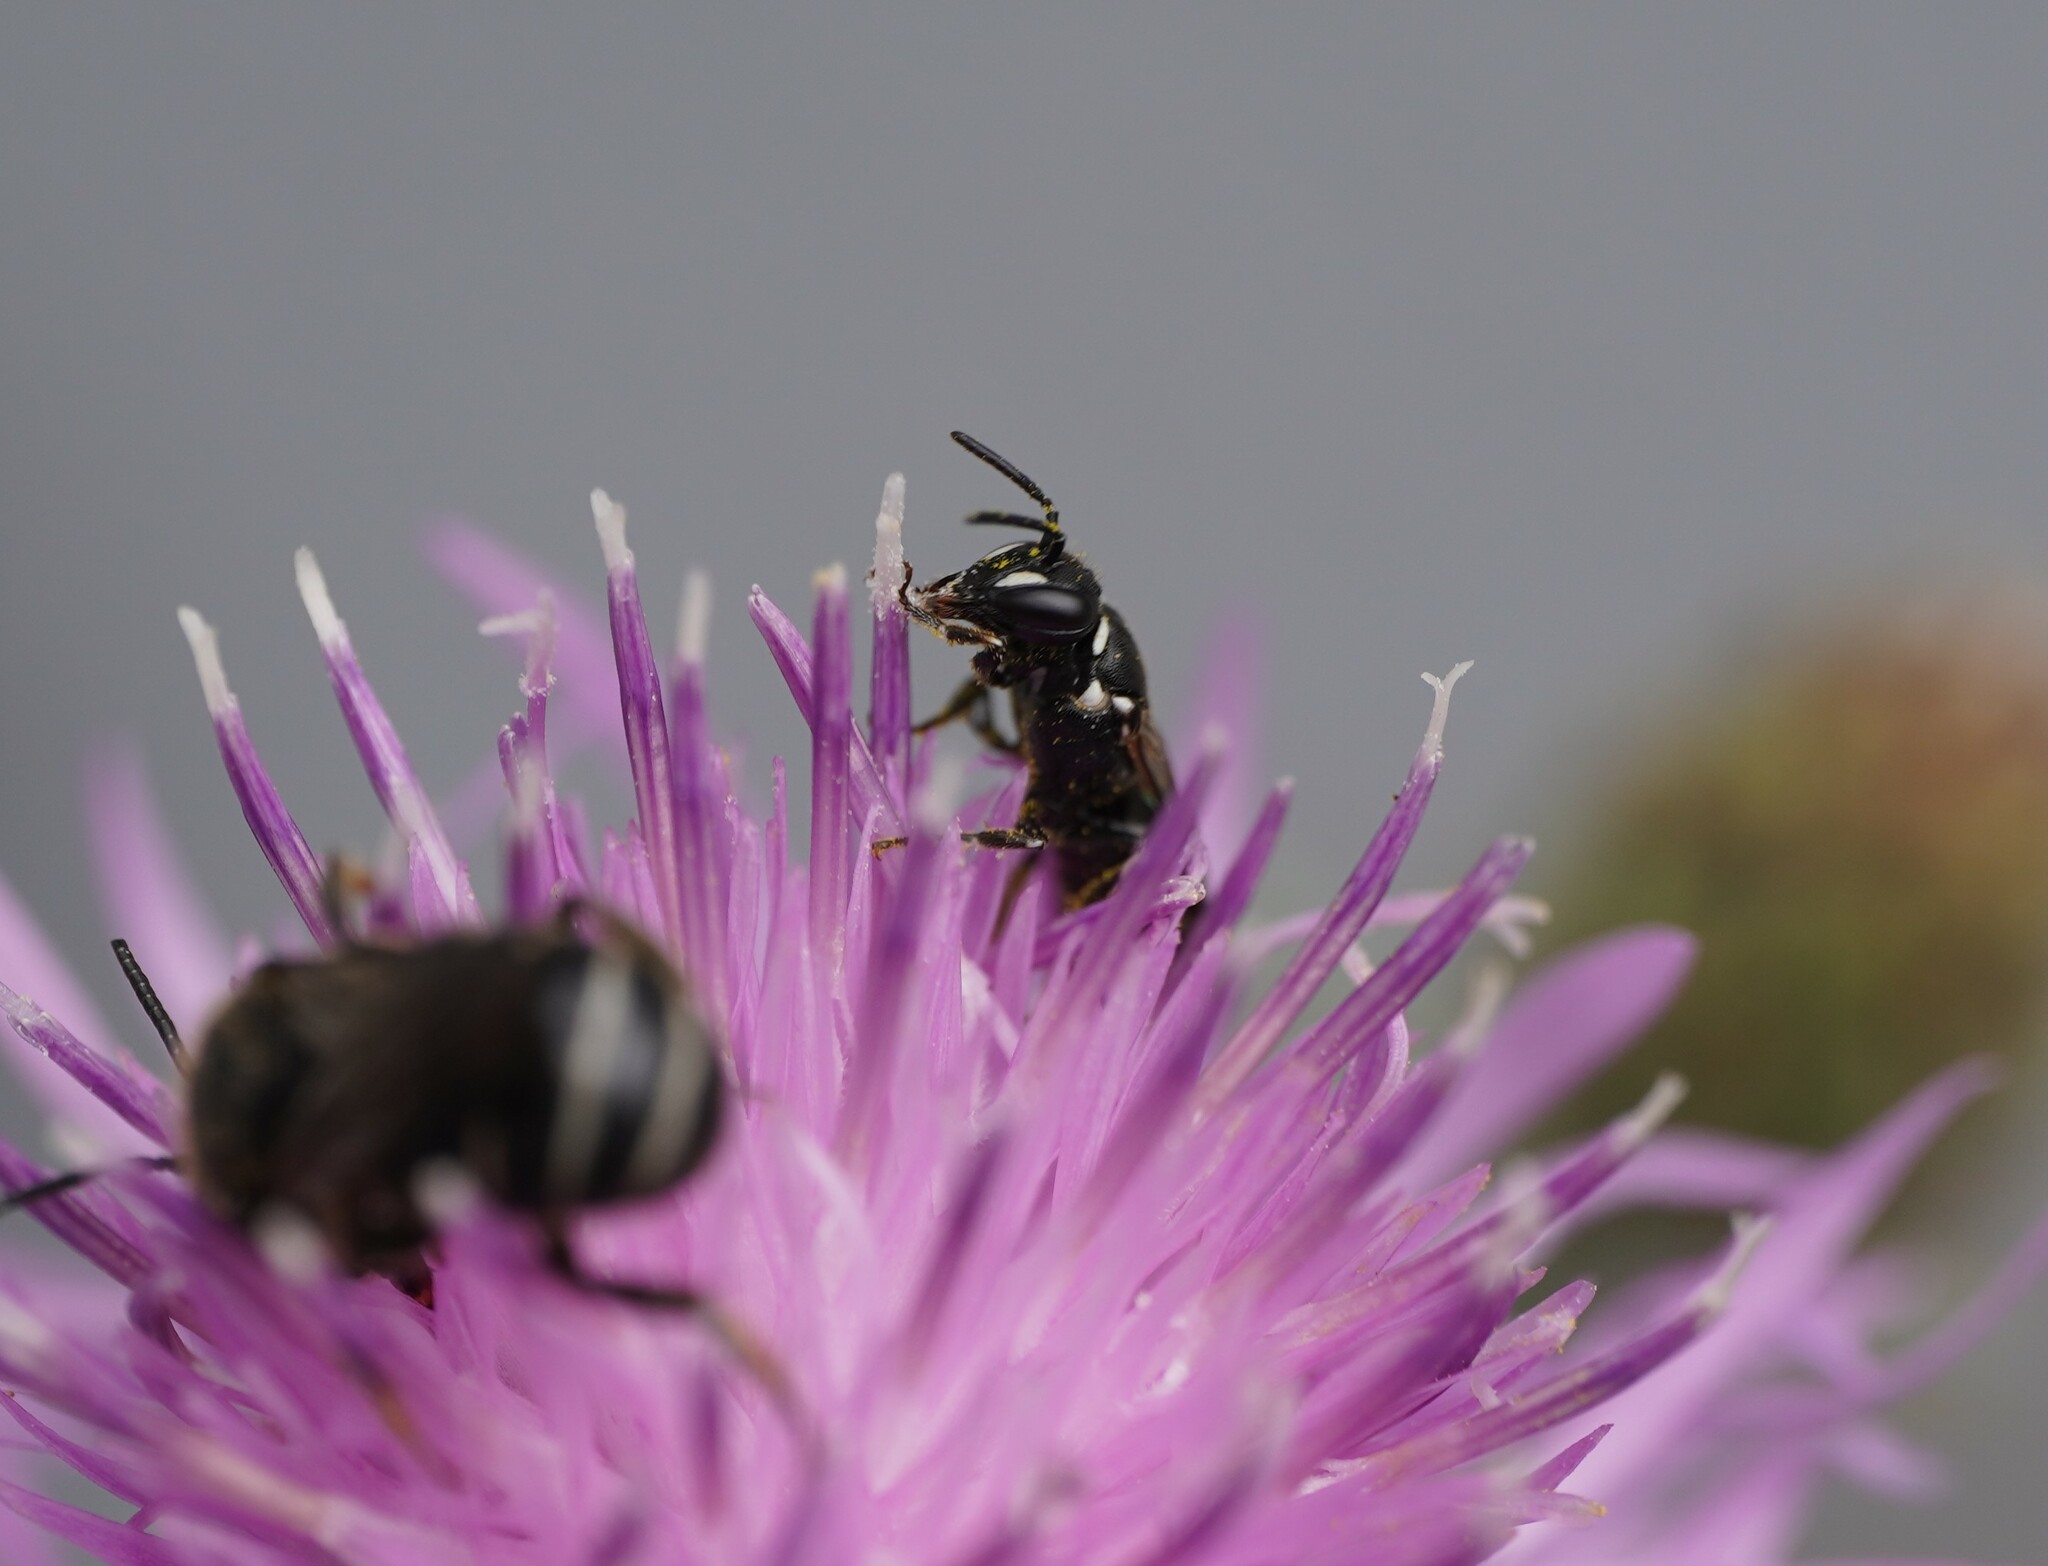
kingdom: Animalia
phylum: Arthropoda
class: Insecta
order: Hymenoptera
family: Colletidae
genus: Hylaeus
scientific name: Hylaeus nigritus
